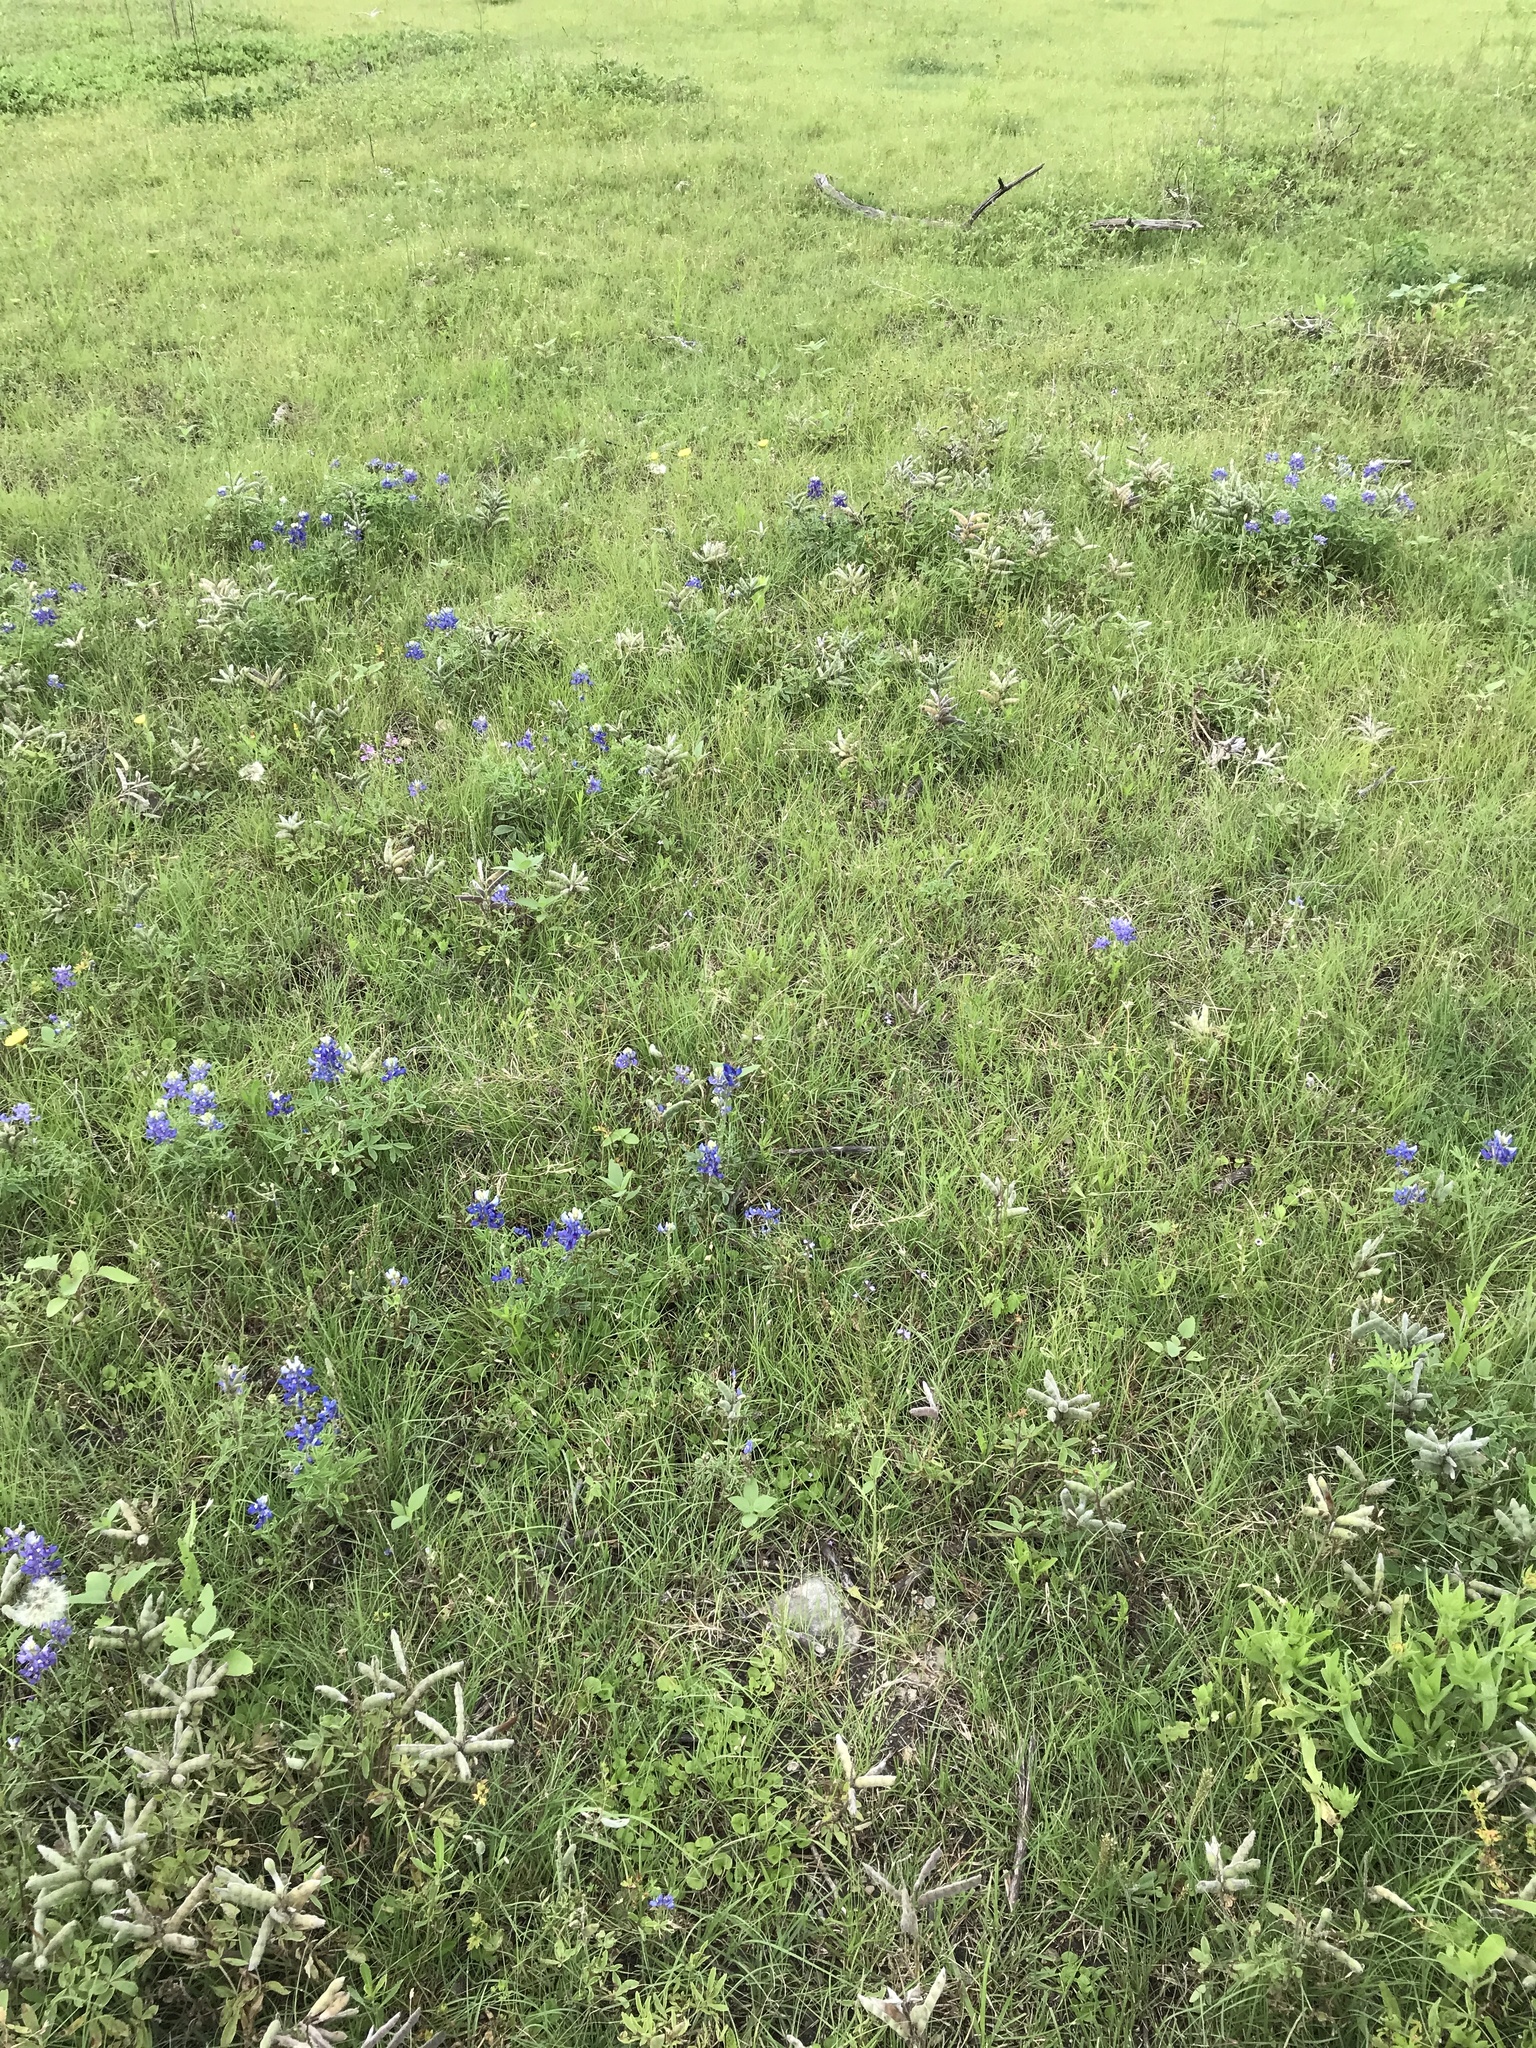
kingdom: Plantae
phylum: Tracheophyta
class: Magnoliopsida
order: Fabales
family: Fabaceae
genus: Lupinus
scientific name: Lupinus texensis
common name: Texas bluebonnet
